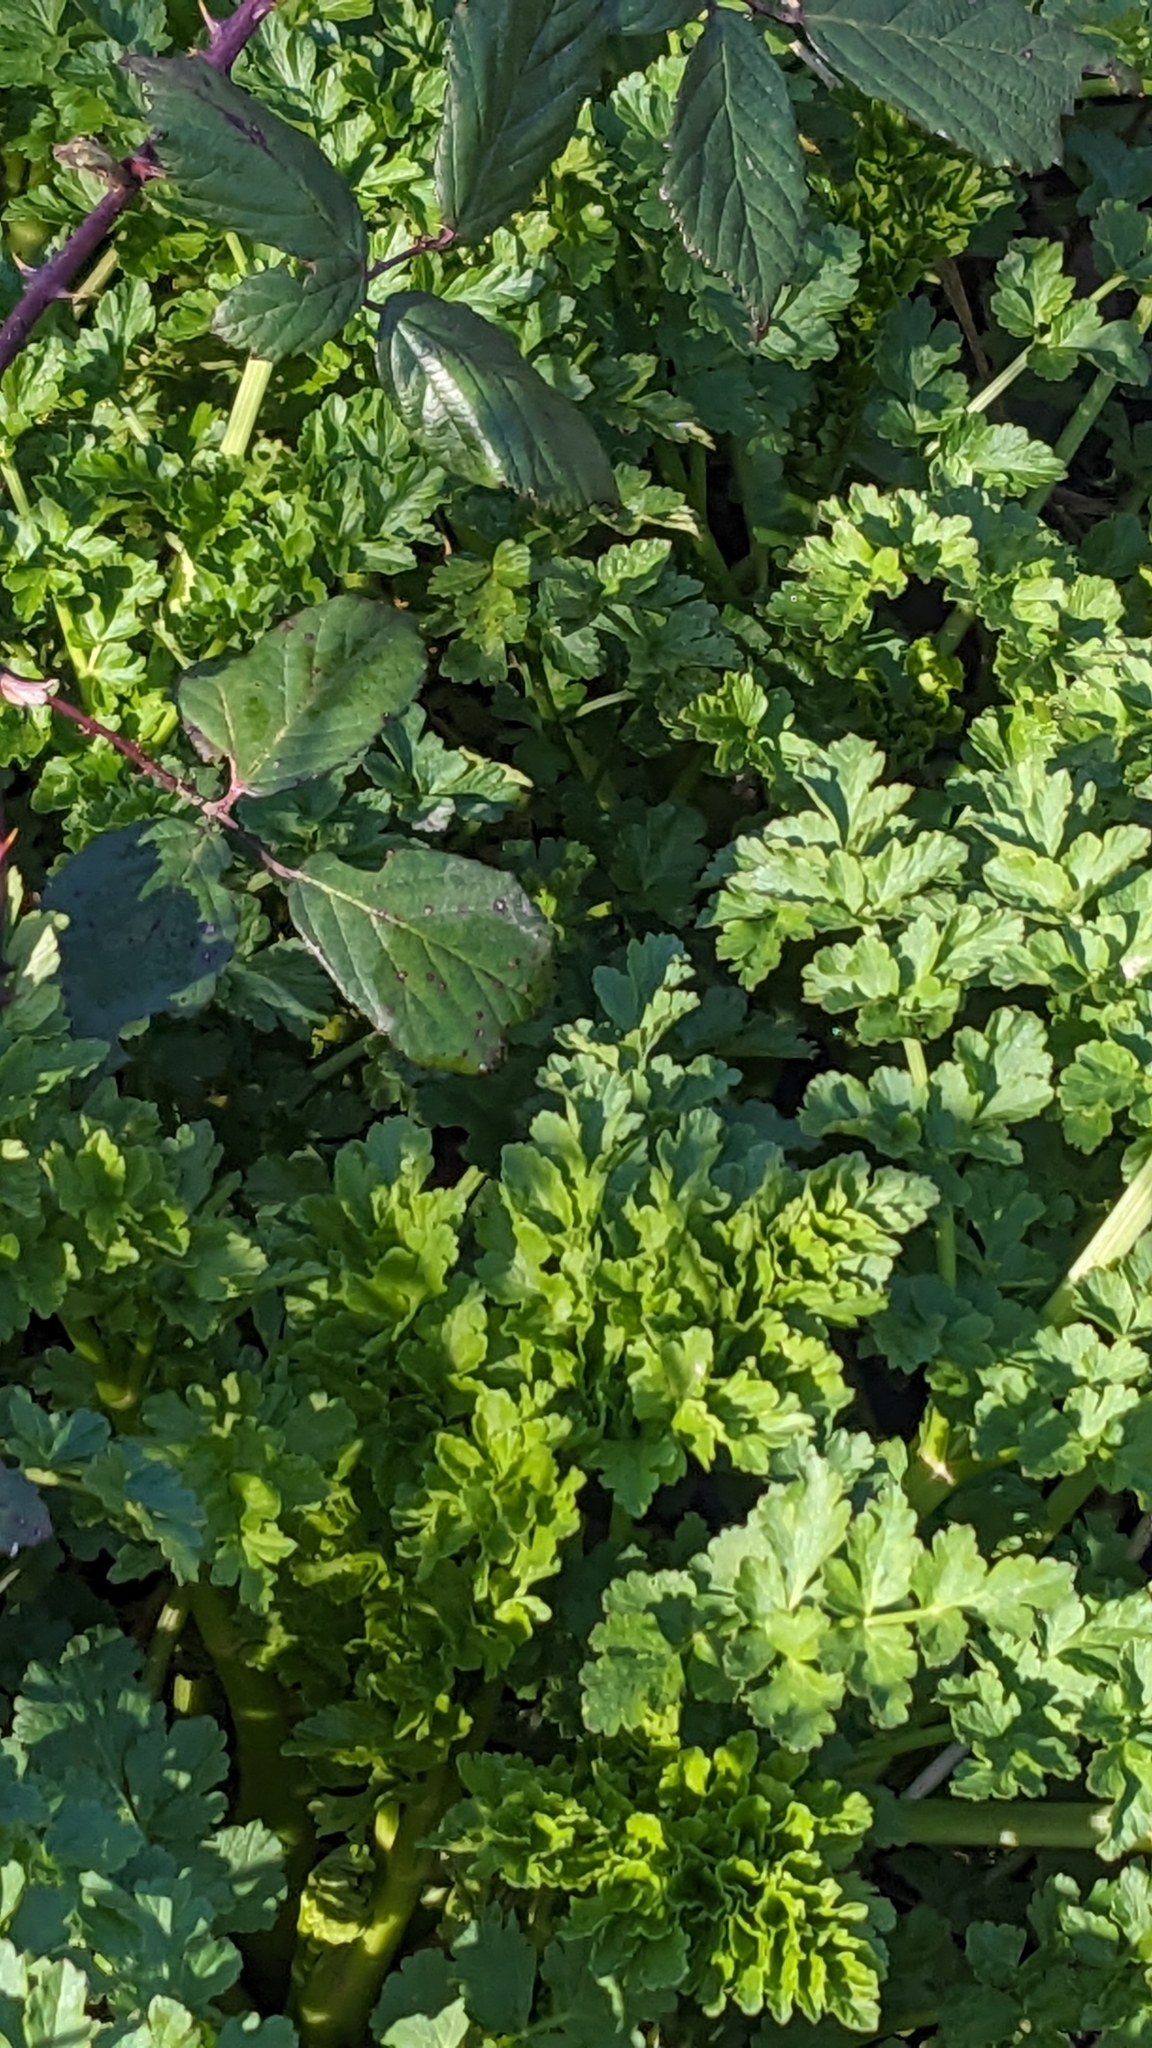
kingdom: Plantae
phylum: Tracheophyta
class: Magnoliopsida
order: Apiales
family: Apiaceae
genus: Oenanthe
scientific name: Oenanthe crocata
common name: Hemlock water-dropwort
